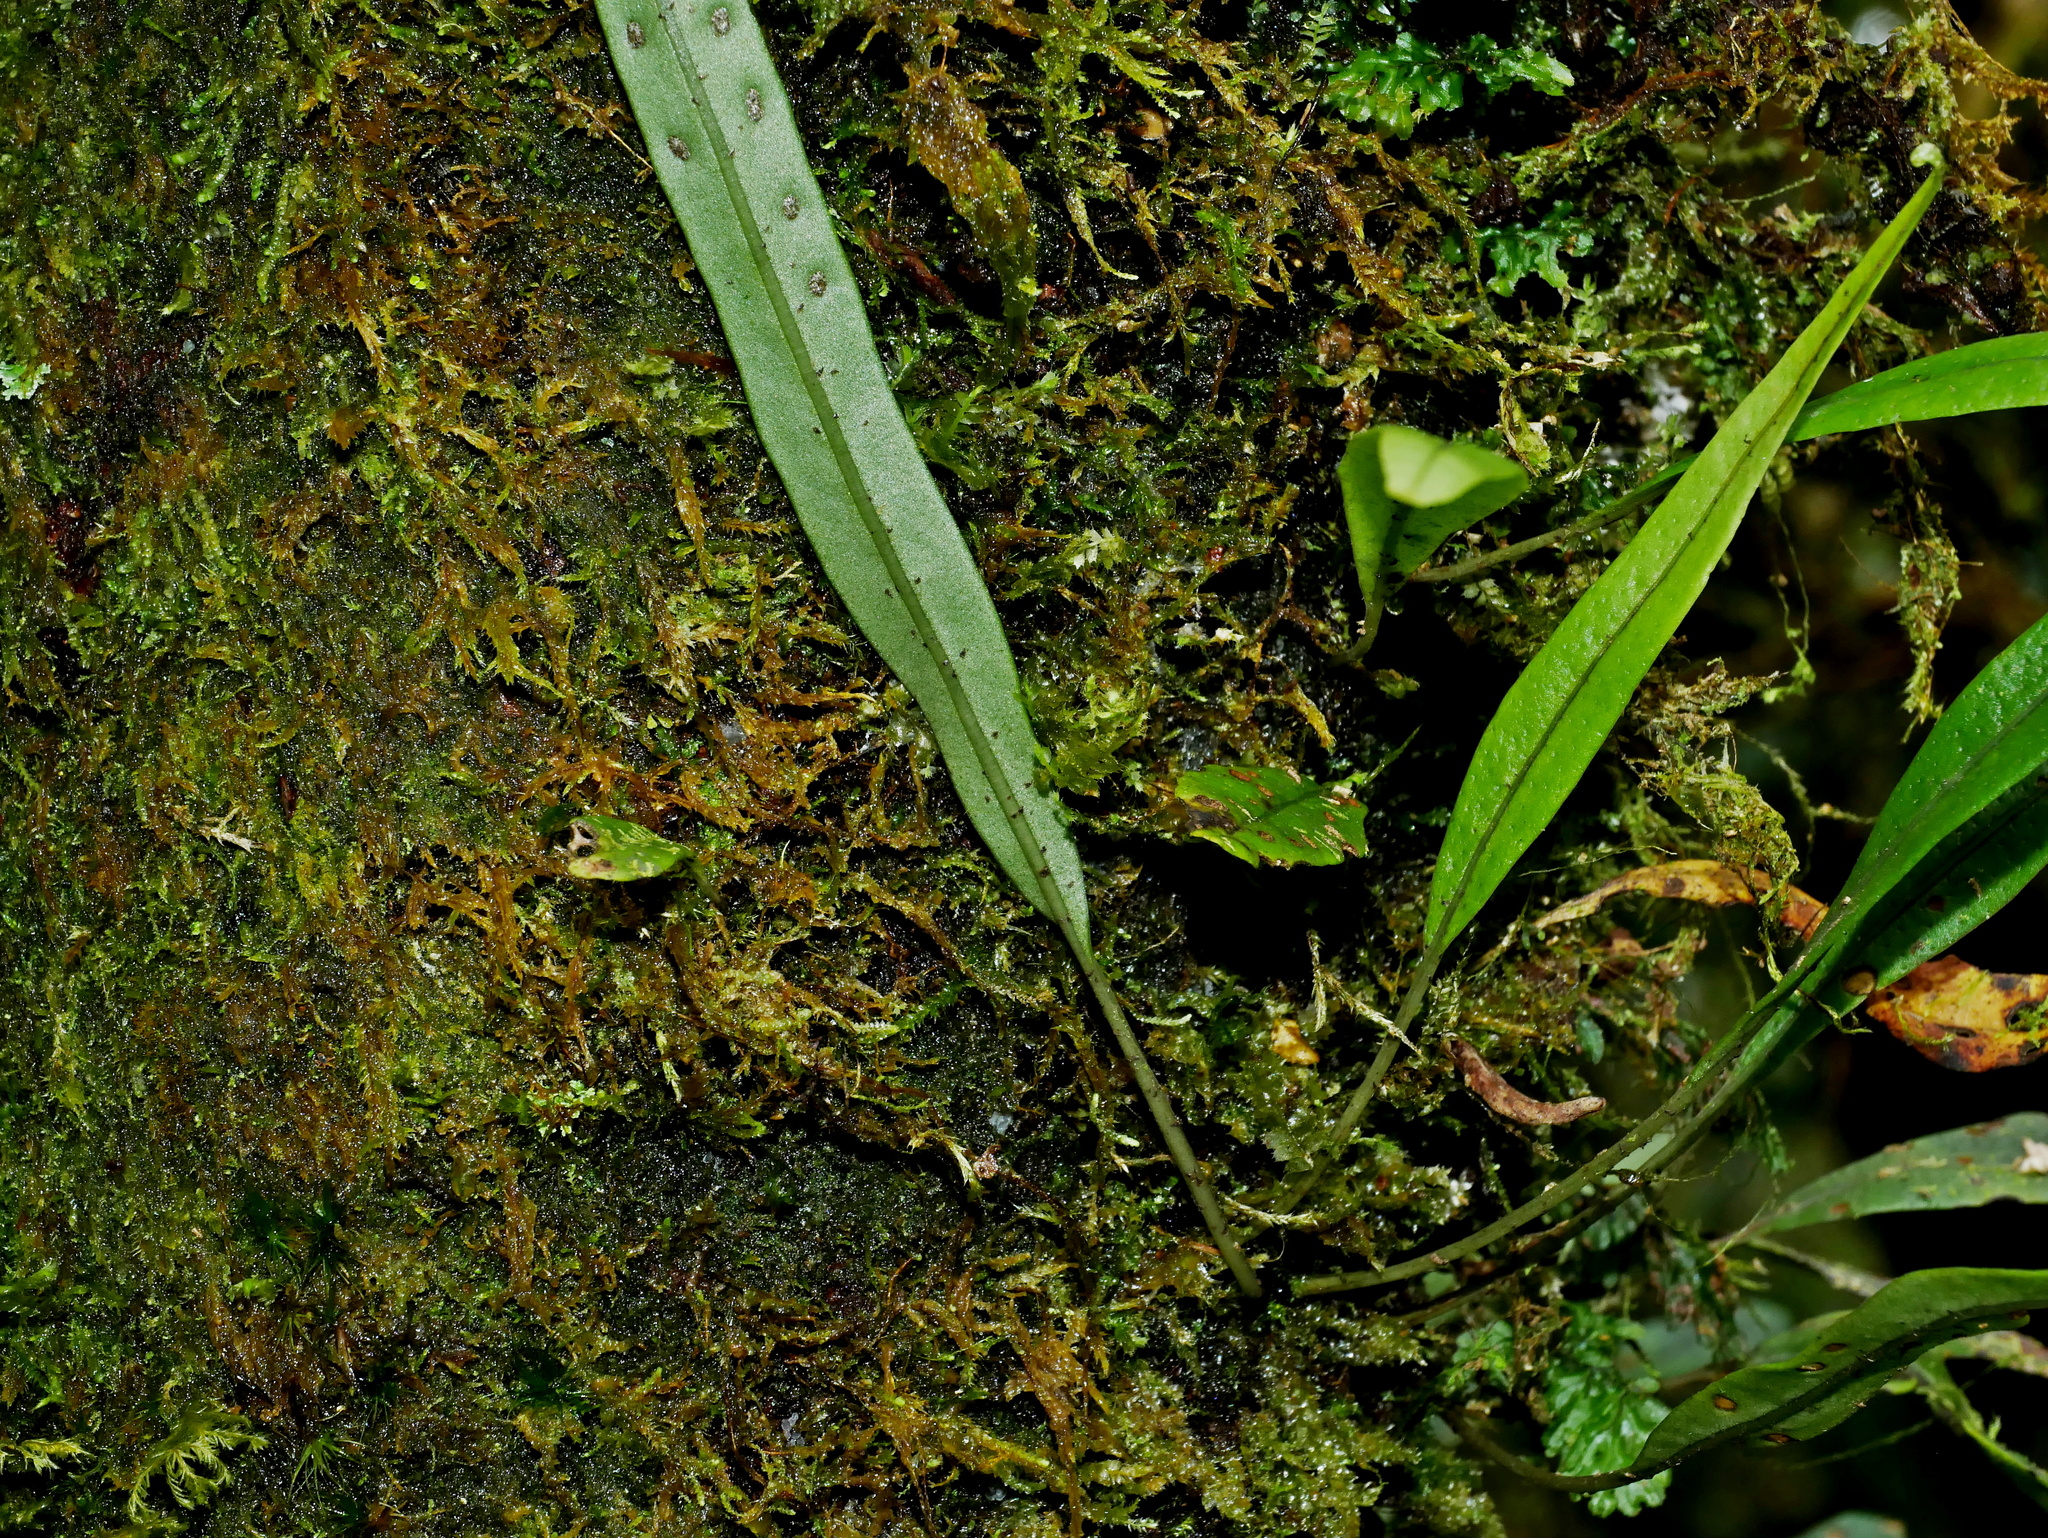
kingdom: Plantae
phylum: Tracheophyta
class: Polypodiopsida
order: Polypodiales
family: Polypodiaceae
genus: Lepisorus
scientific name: Lepisorus heterolepis
